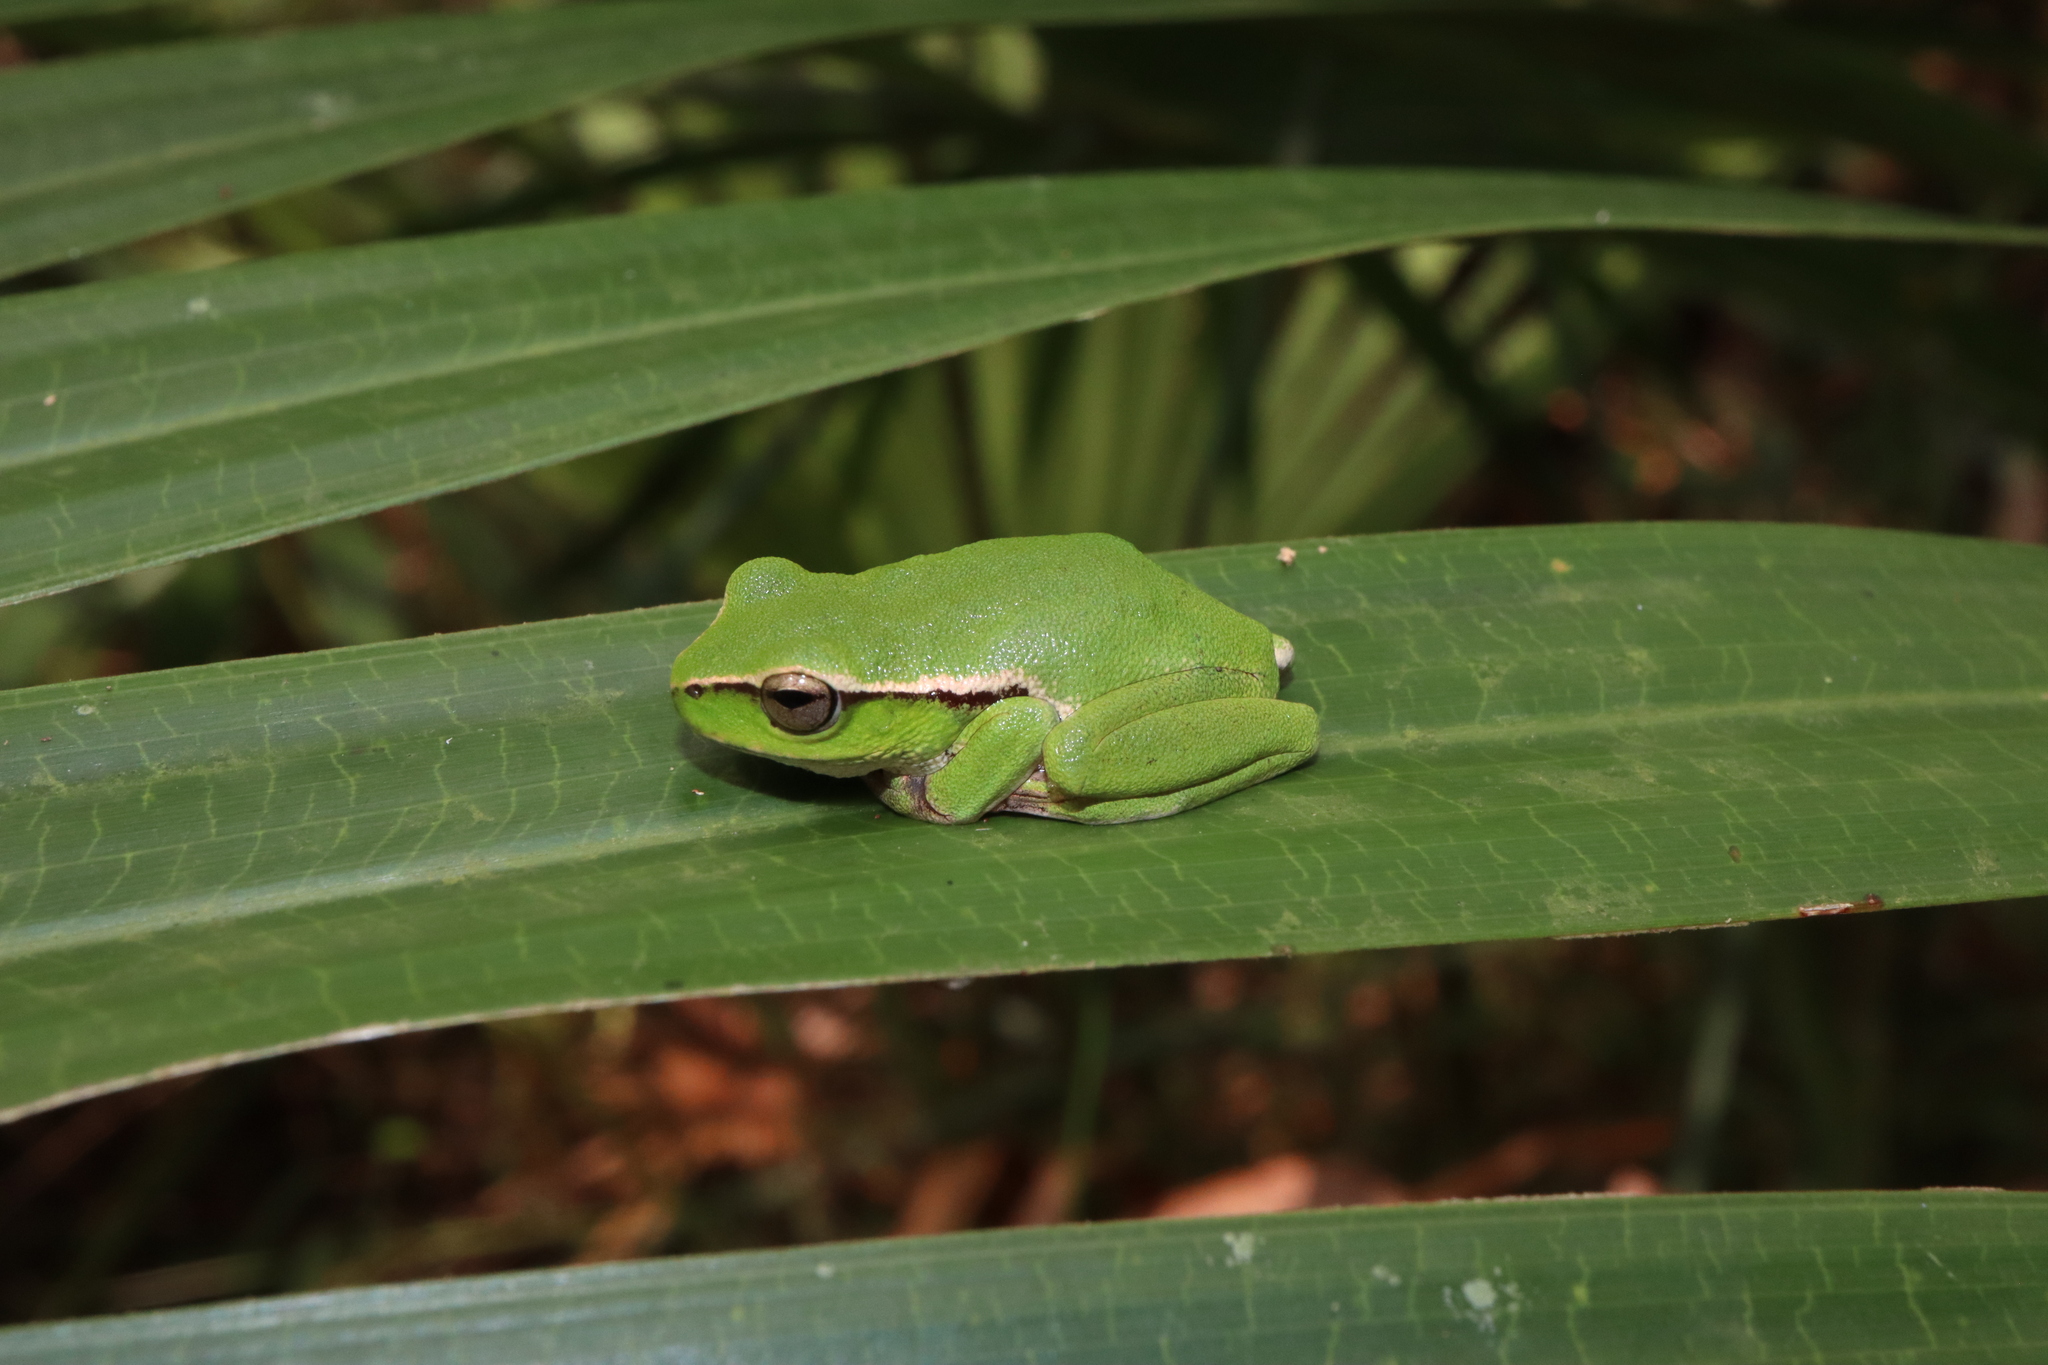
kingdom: Animalia
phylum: Chordata
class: Amphibia
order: Anura
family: Pelodryadidae
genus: Ranoidea
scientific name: Ranoidea phyllochroa
